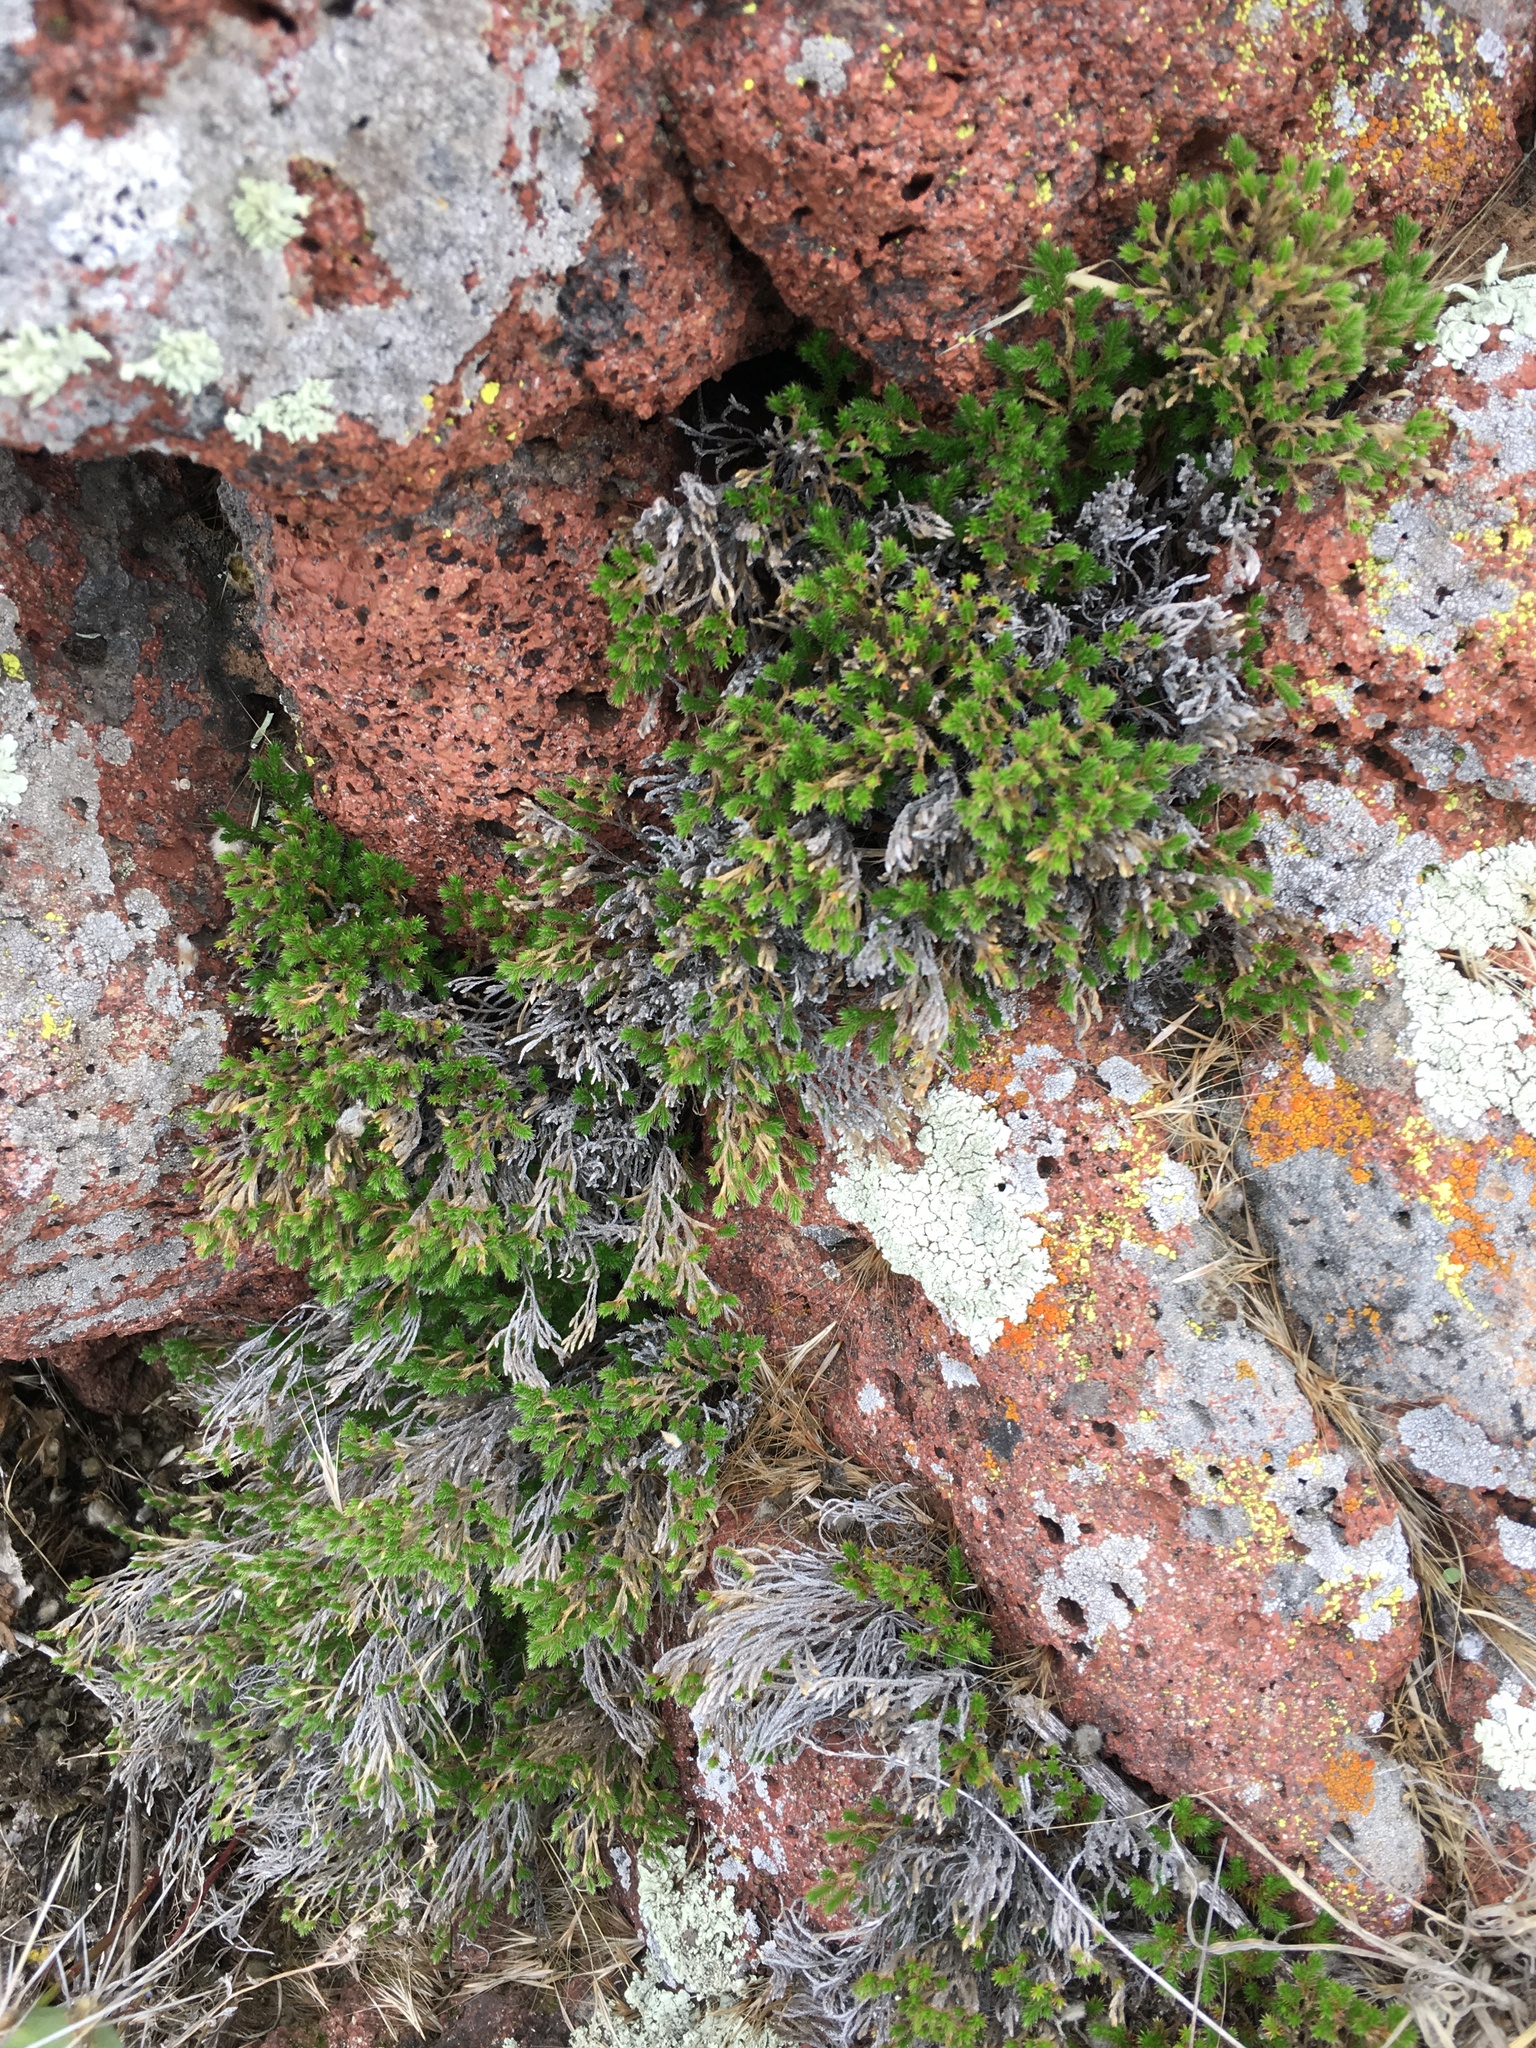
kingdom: Plantae
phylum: Tracheophyta
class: Lycopodiopsida
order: Selaginellales
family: Selaginellaceae
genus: Selaginella
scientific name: Selaginella bigelovii
